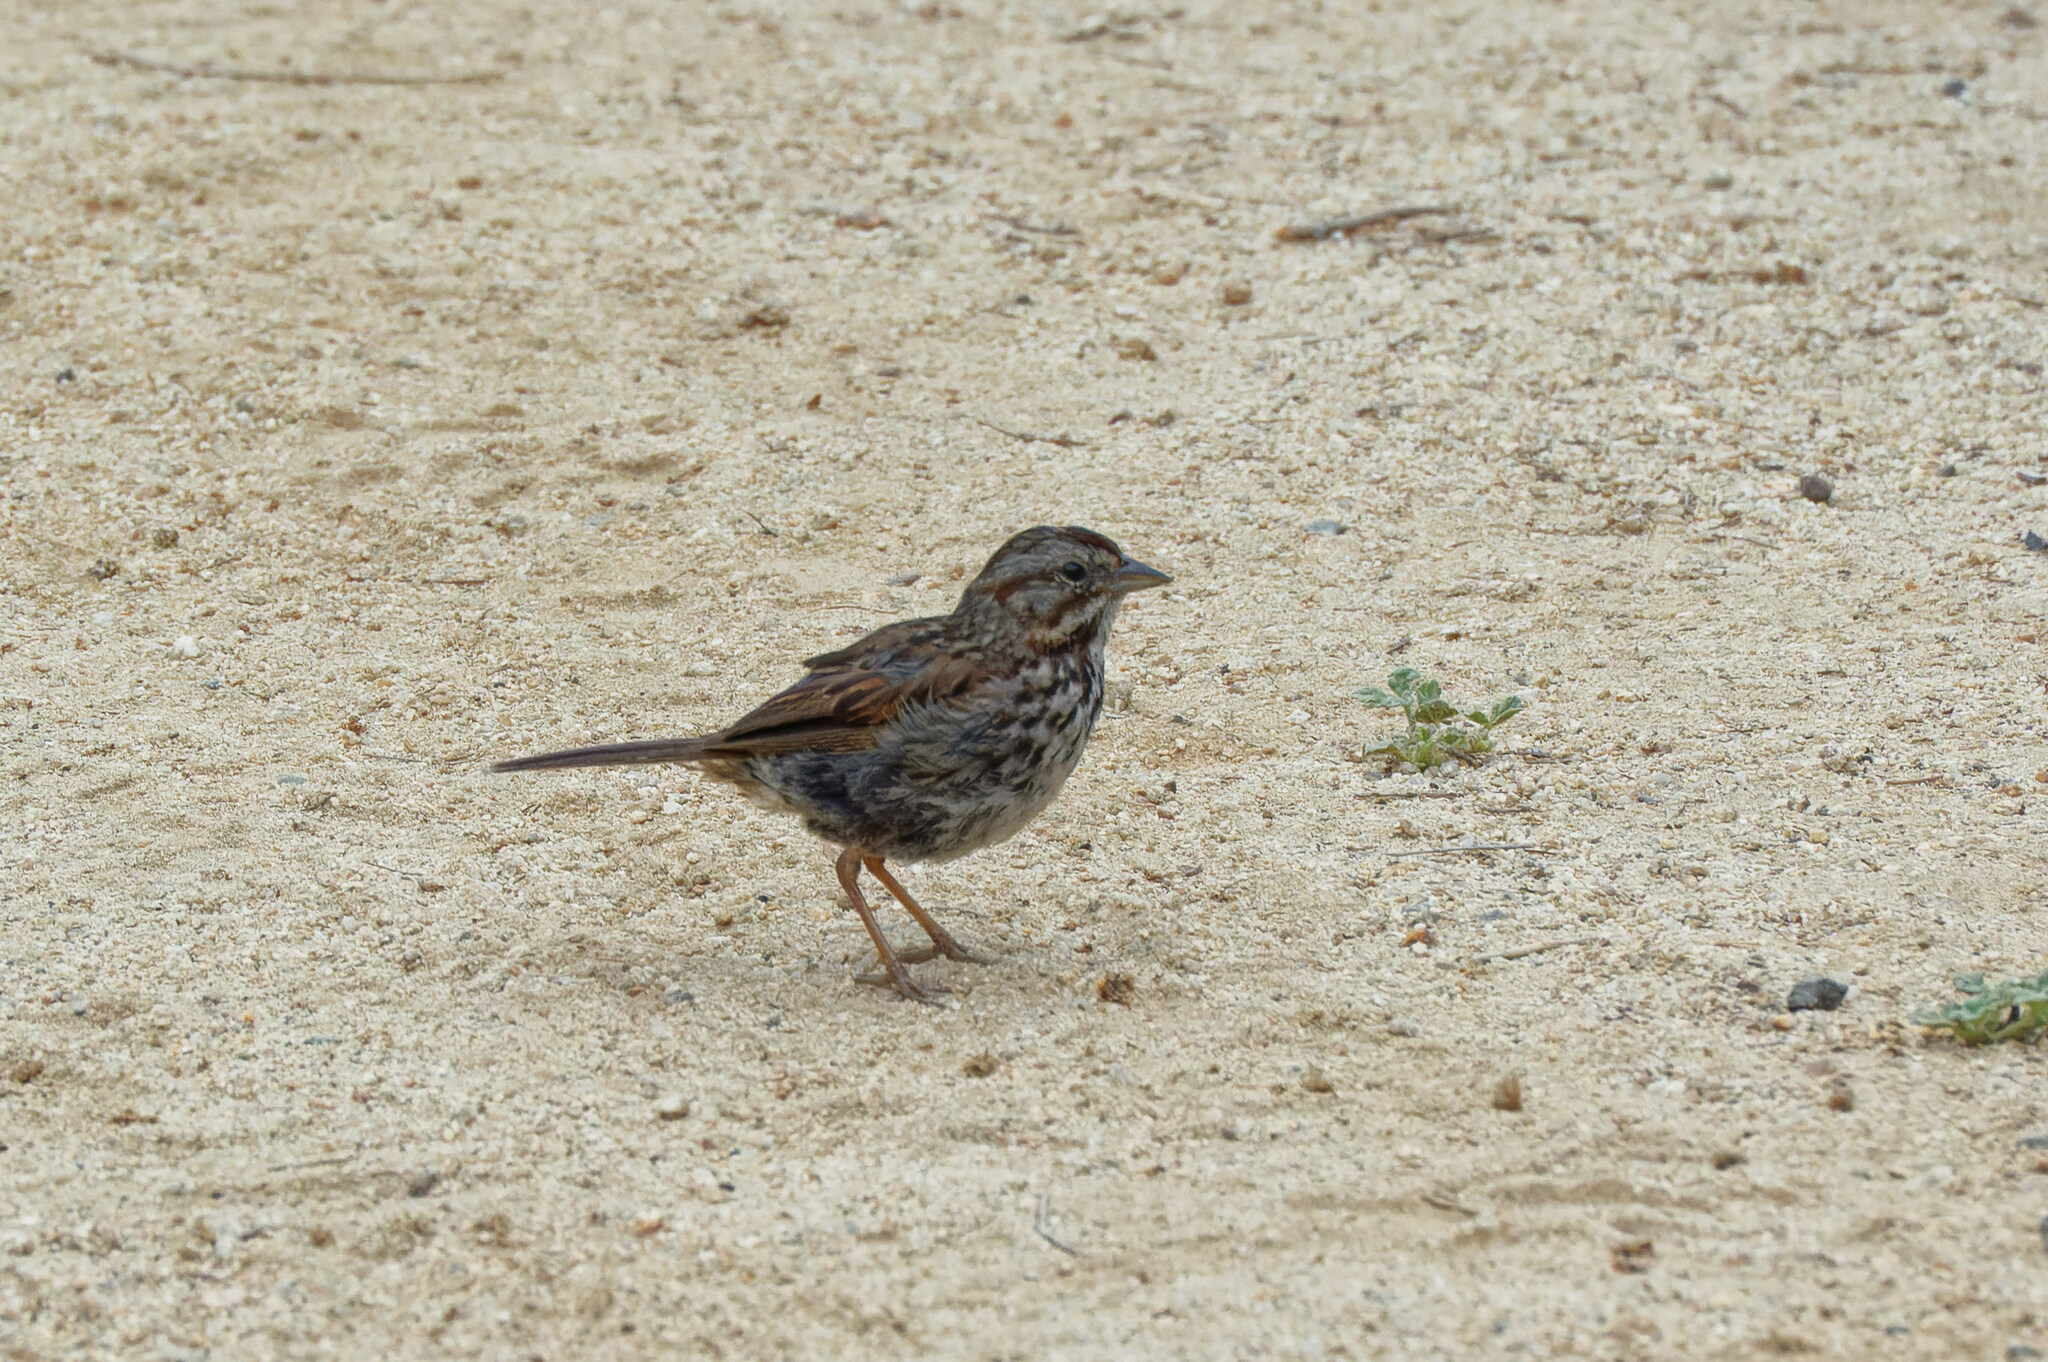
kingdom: Animalia
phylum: Chordata
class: Aves
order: Passeriformes
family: Passerellidae
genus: Melospiza
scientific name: Melospiza melodia
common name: Song sparrow
